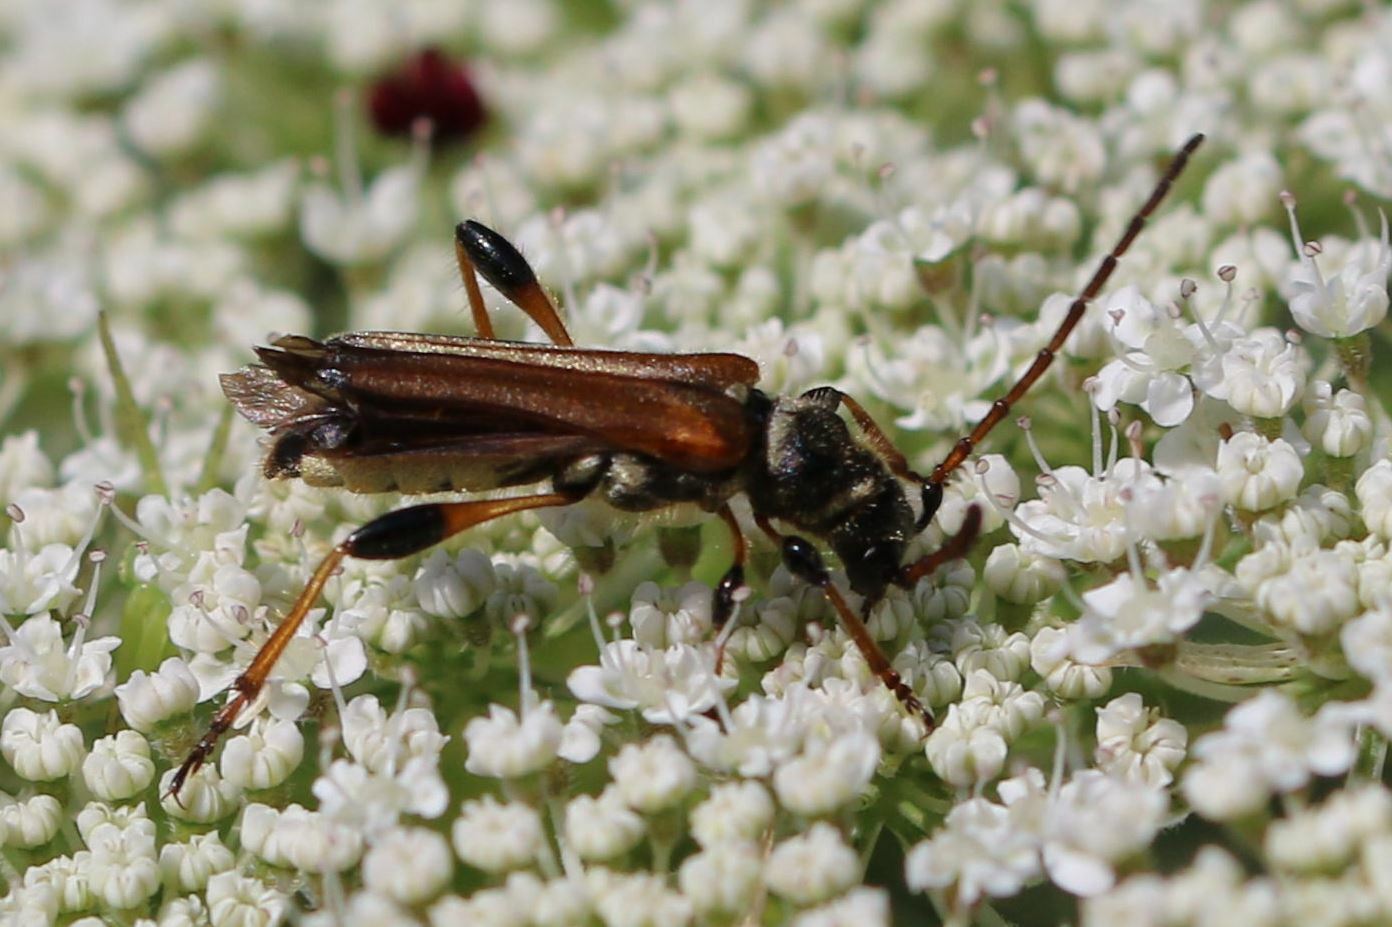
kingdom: Animalia
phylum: Arthropoda
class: Insecta
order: Coleoptera
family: Cerambycidae
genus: Stenopterus
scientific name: Stenopterus ater
